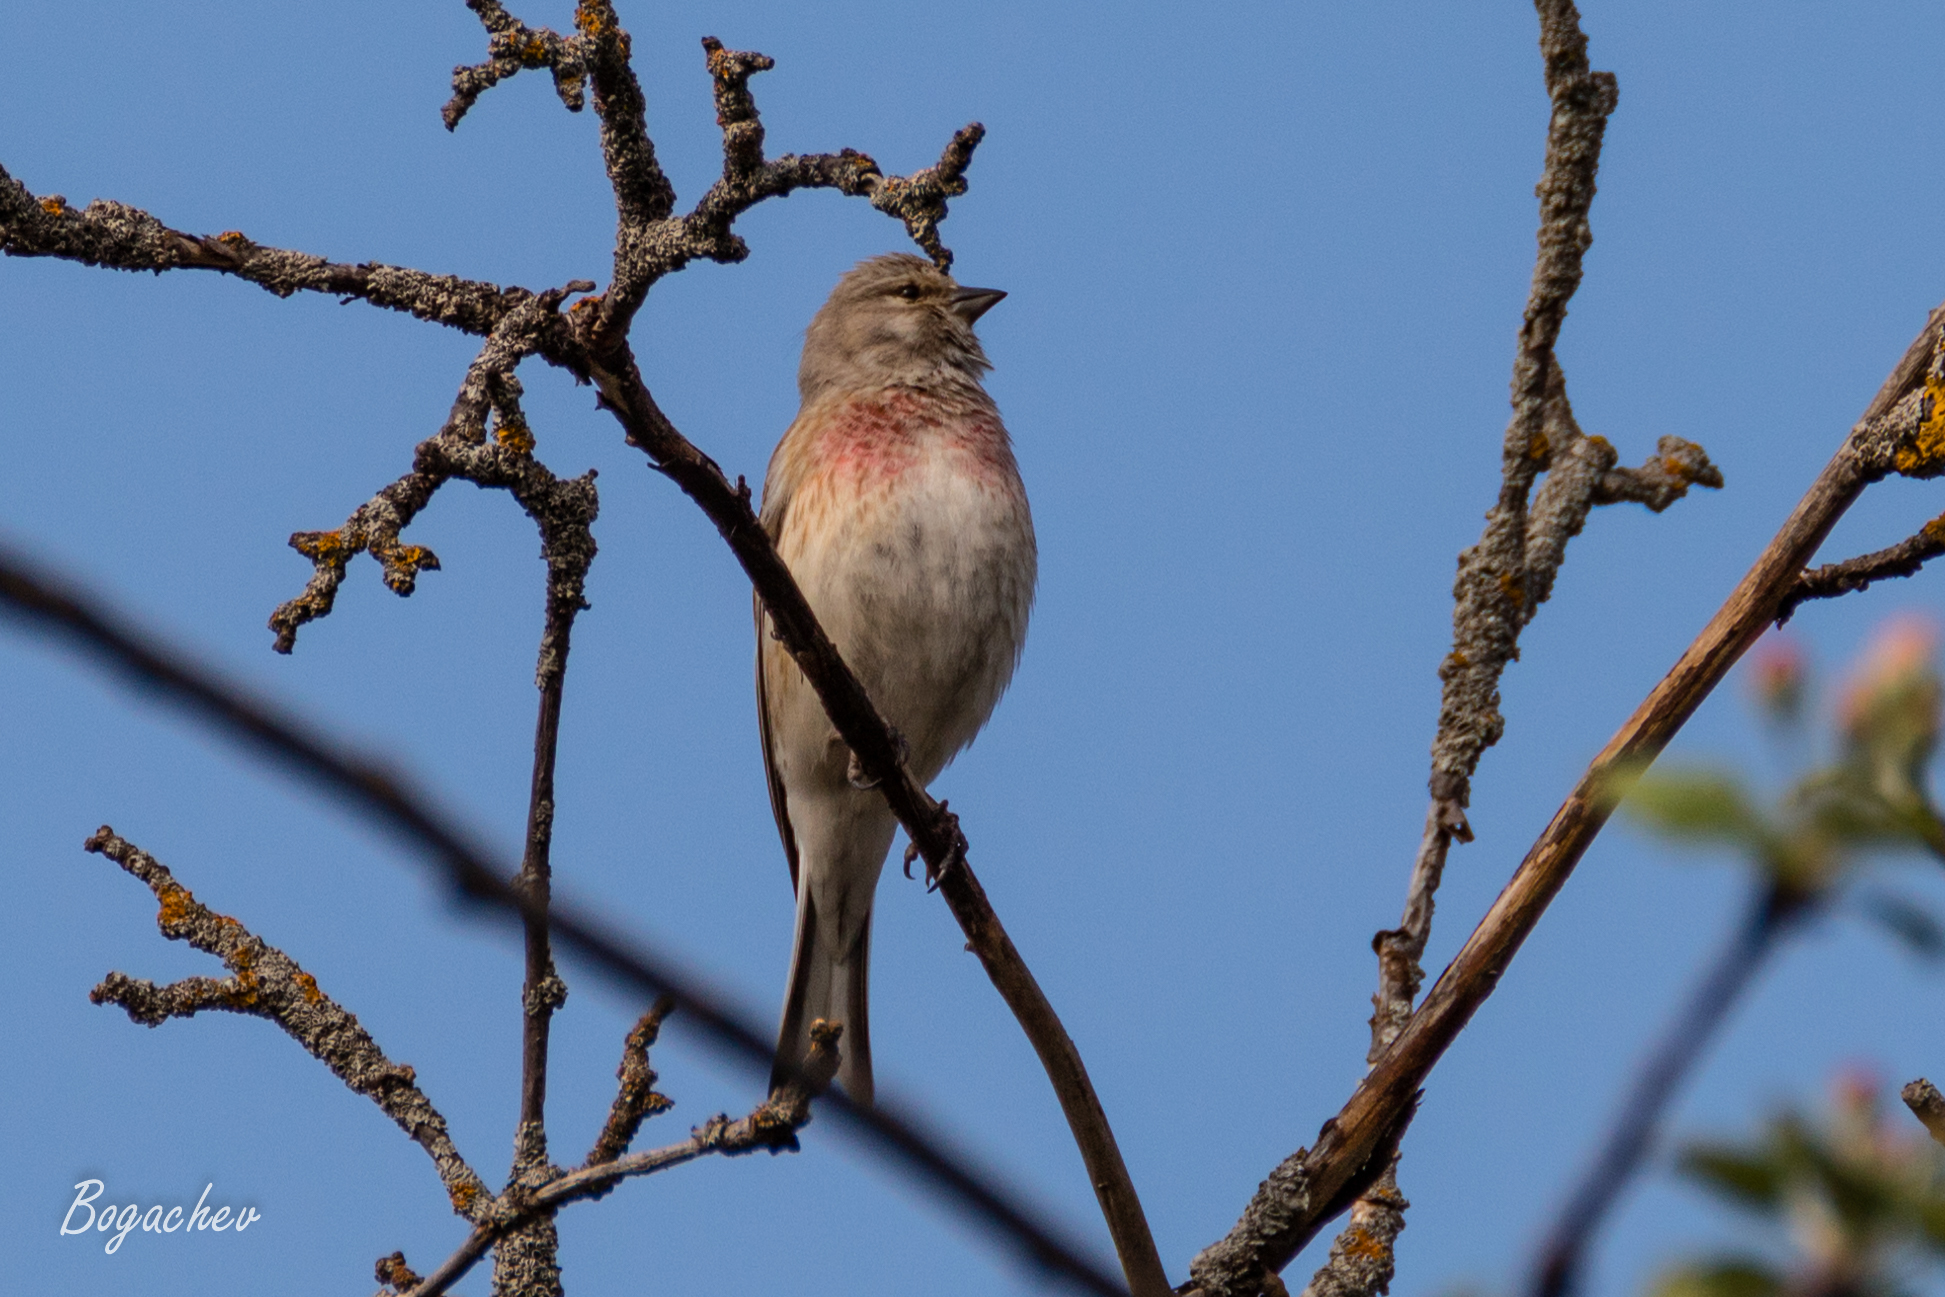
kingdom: Animalia
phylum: Chordata
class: Aves
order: Passeriformes
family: Fringillidae
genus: Linaria
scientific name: Linaria cannabina
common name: Common linnet
